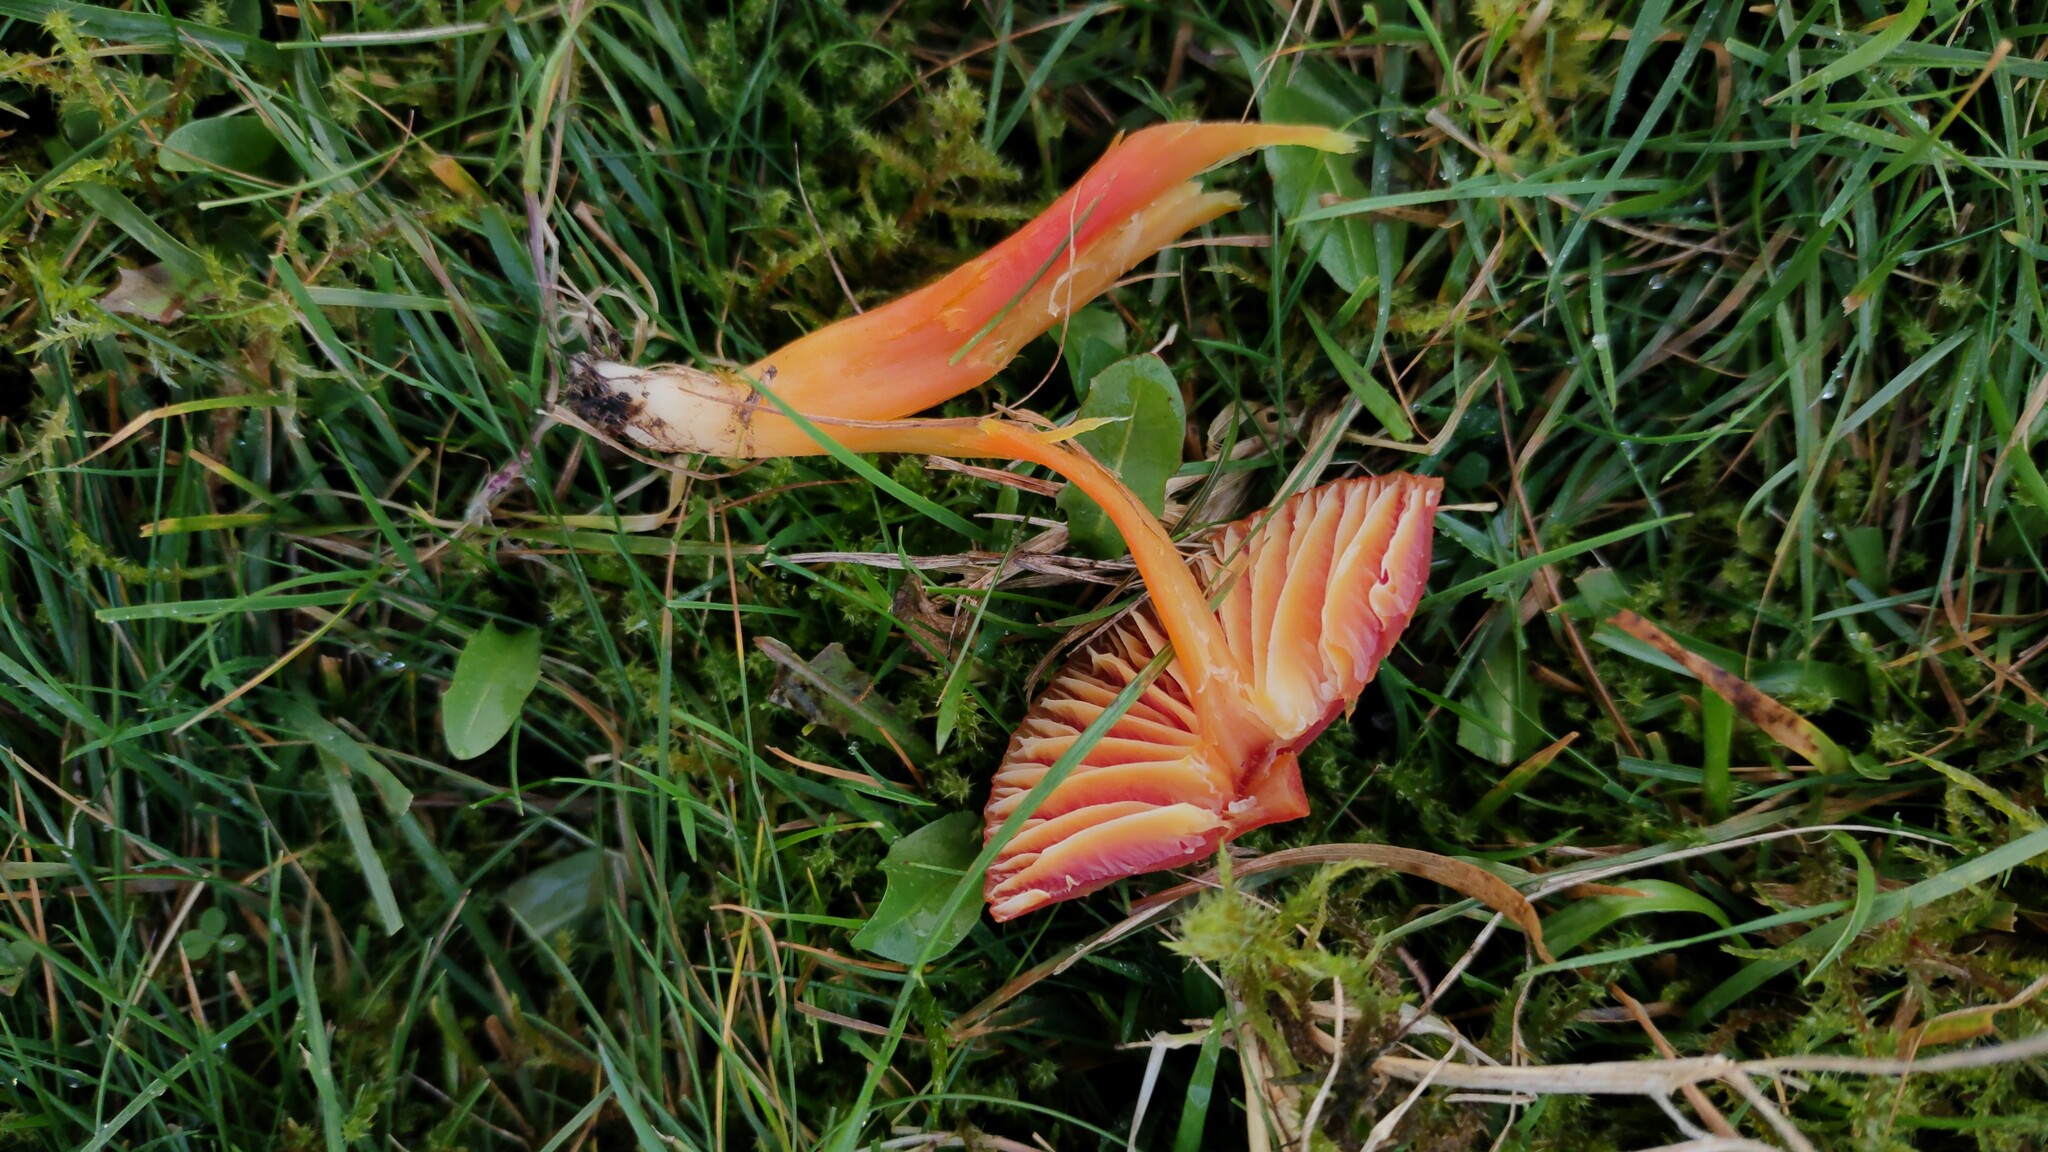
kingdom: Fungi
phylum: Basidiomycota
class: Agaricomycetes
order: Agaricales
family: Hygrophoraceae
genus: Hygrocybe
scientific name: Hygrocybe coccinea
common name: Scarlet hood
